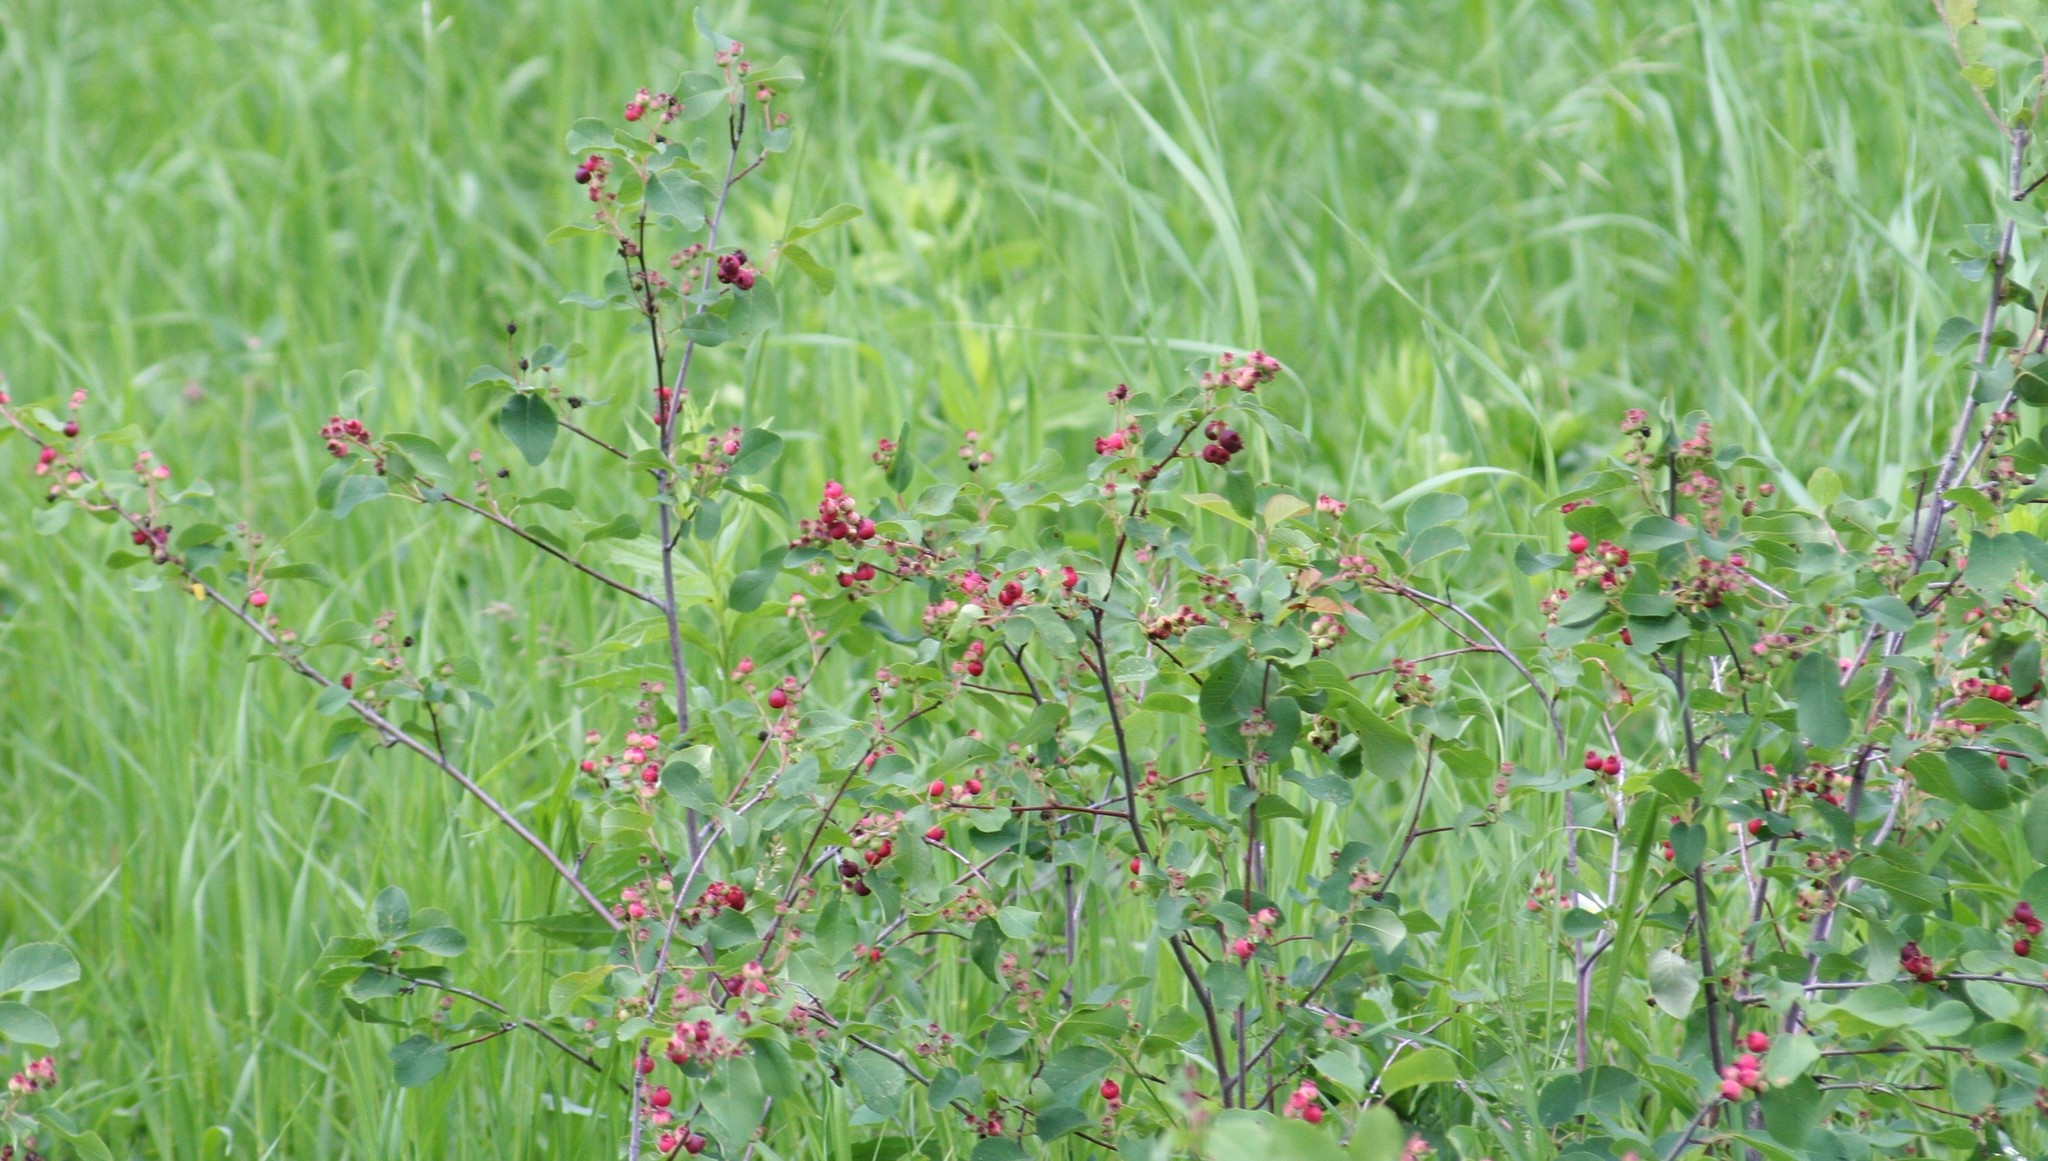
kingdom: Plantae
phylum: Tracheophyta
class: Magnoliopsida
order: Rosales
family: Rosaceae
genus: Amelanchier
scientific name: Amelanchier alnifolia
